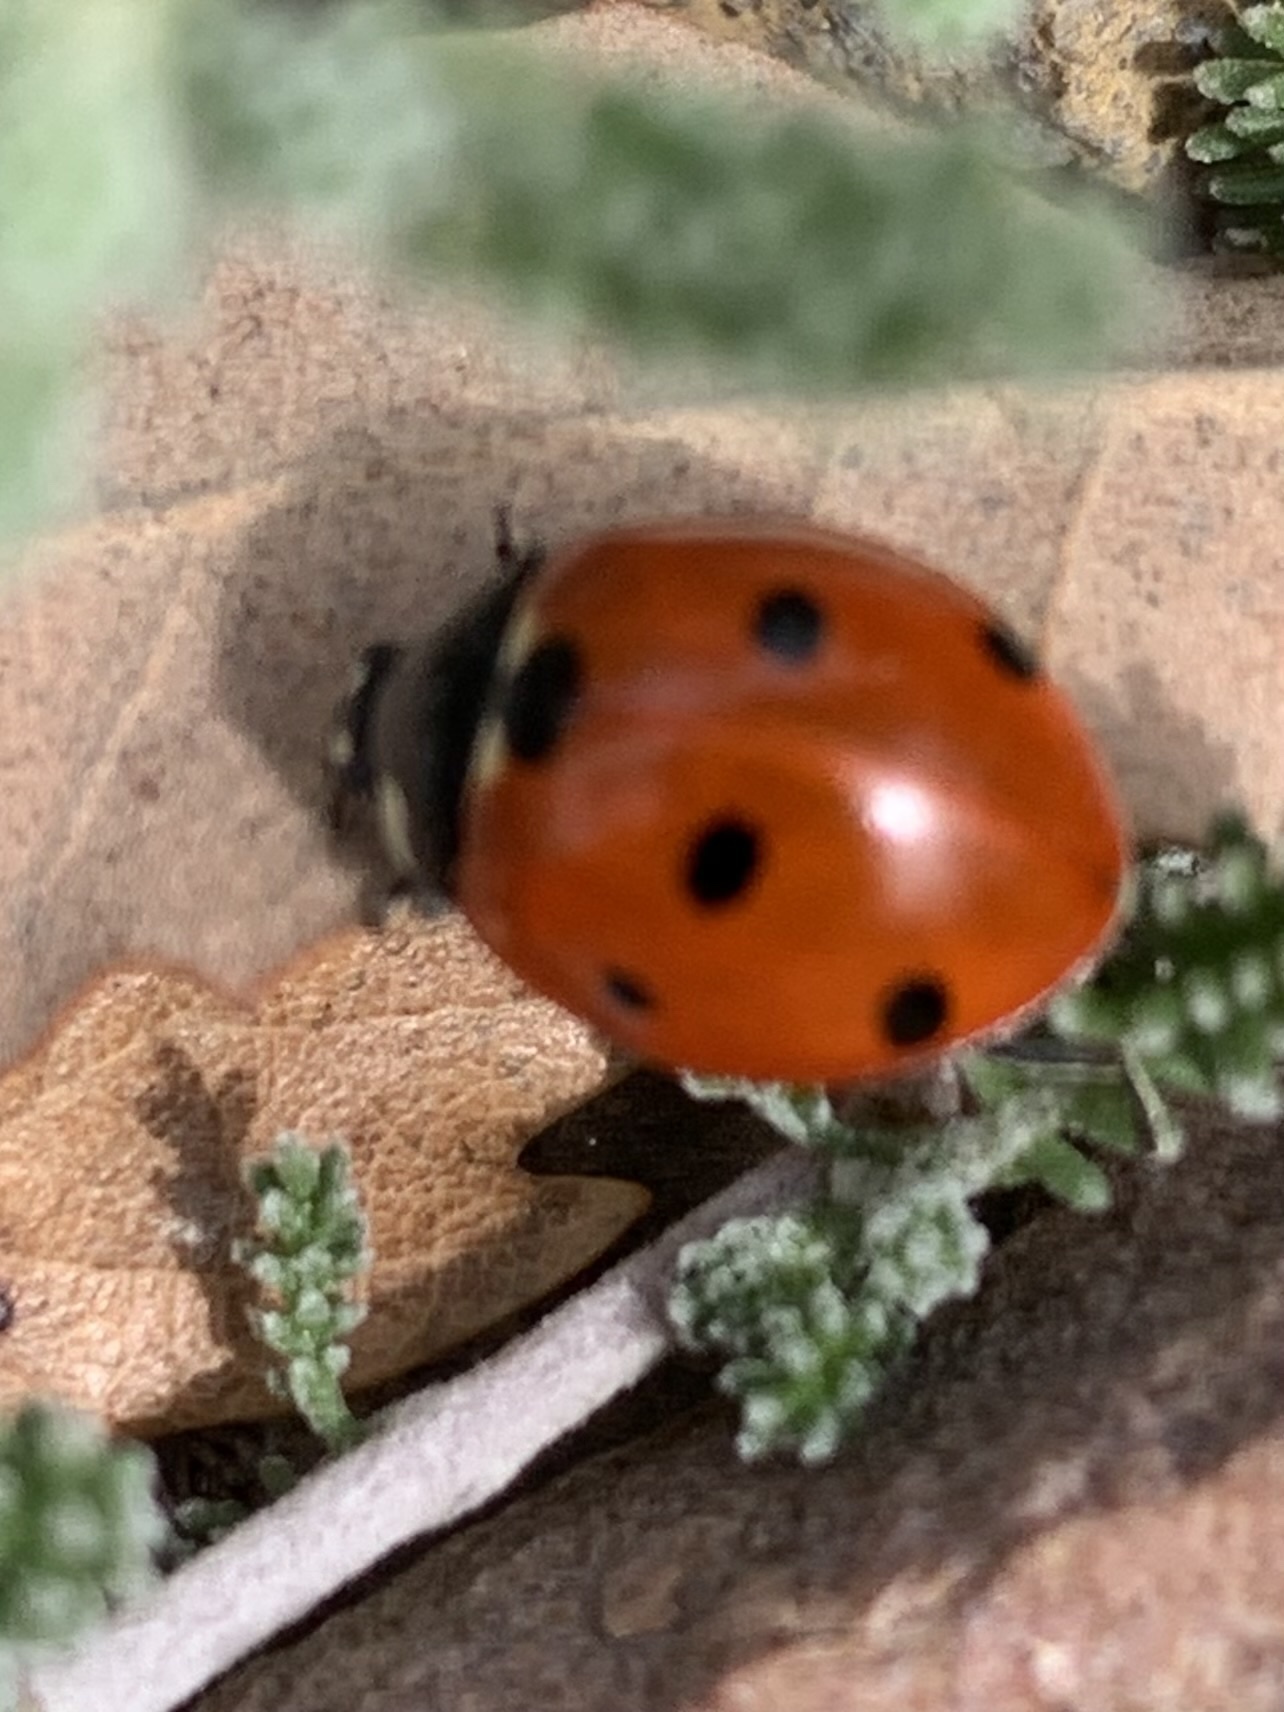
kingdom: Animalia
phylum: Arthropoda
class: Insecta
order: Coleoptera
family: Coccinellidae
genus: Coccinella
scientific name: Coccinella septempunctata
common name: Sevenspotted lady beetle
